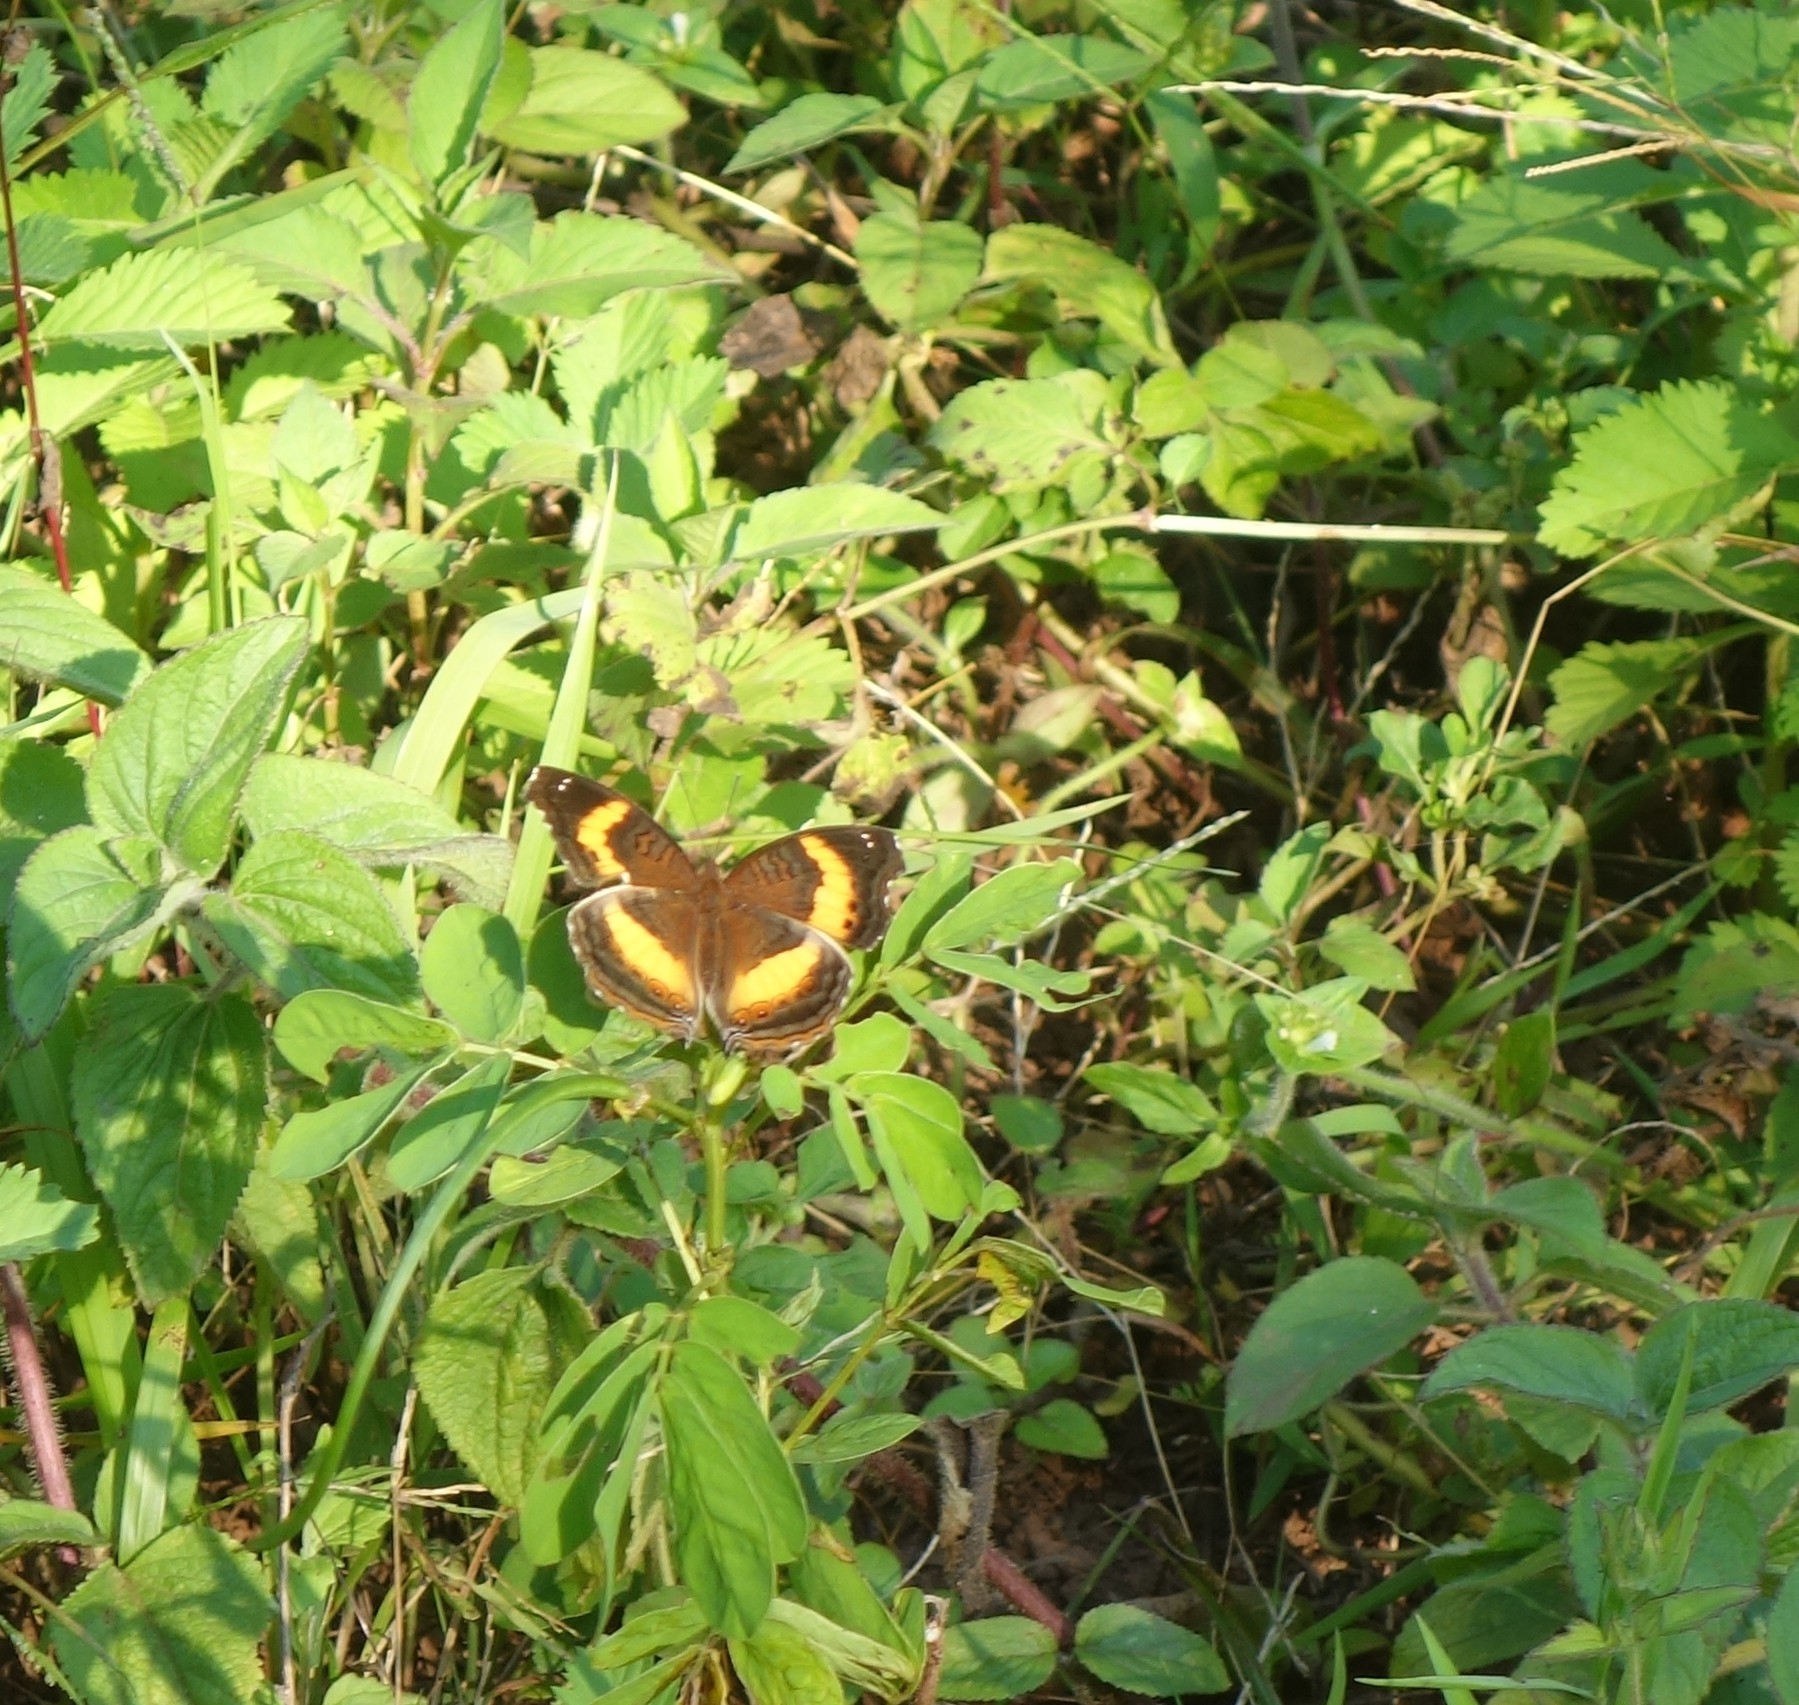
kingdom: Animalia
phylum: Arthropoda
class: Insecta
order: Lepidoptera
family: Nymphalidae
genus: Junonia
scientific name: Junonia terea
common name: Soldier pansy
